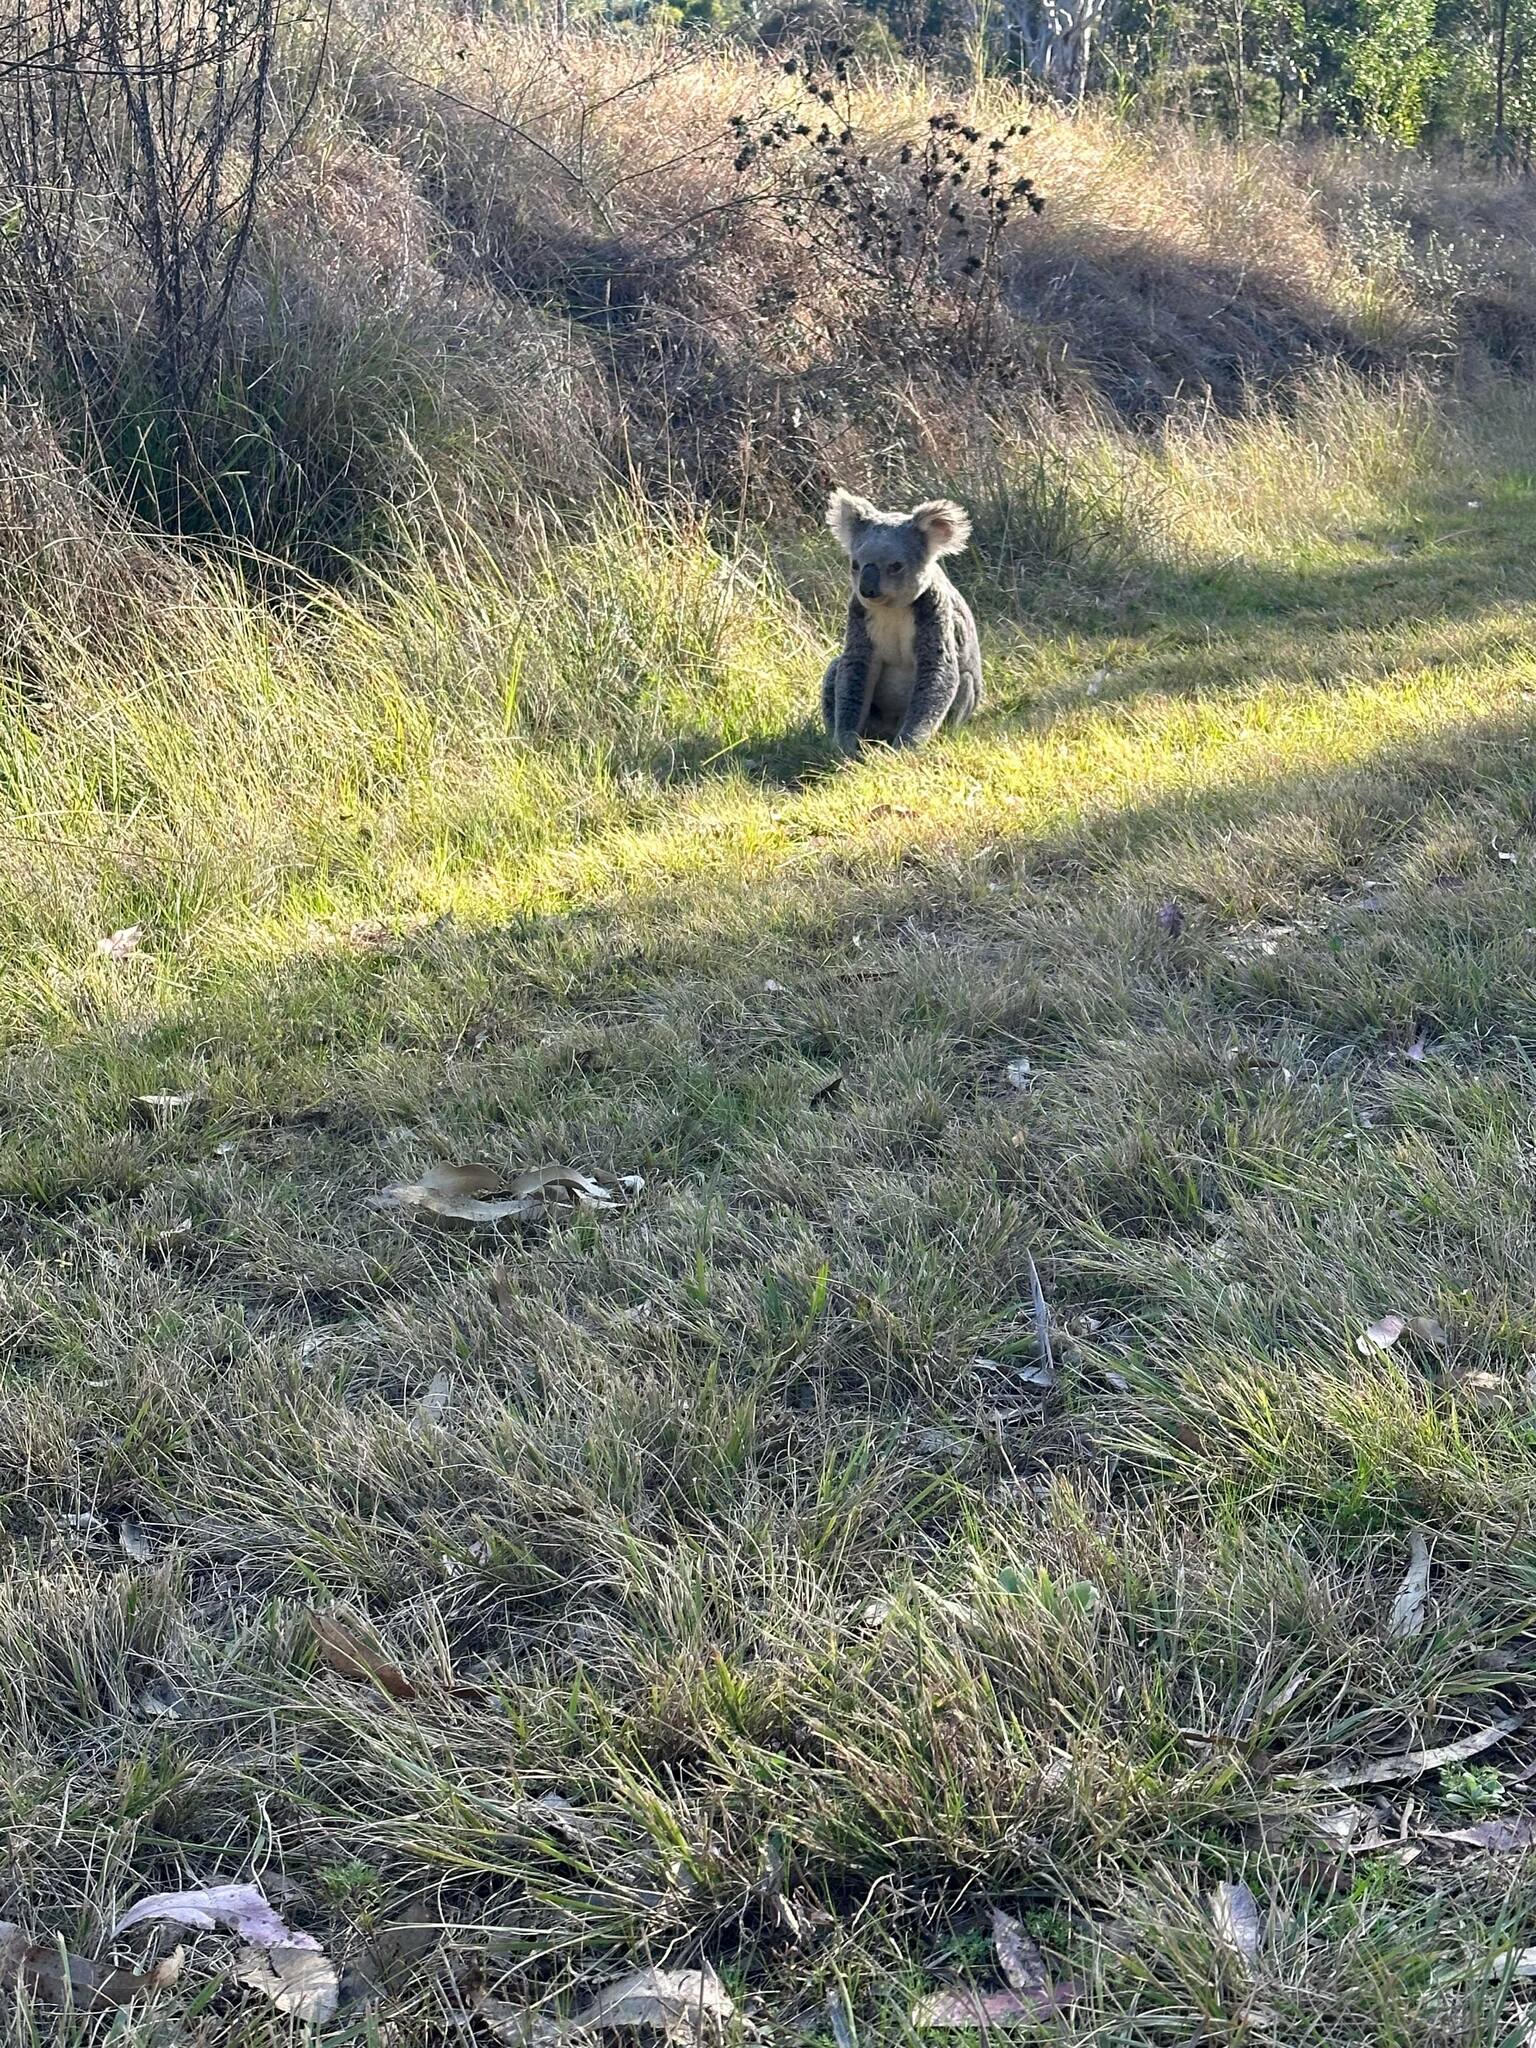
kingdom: Animalia
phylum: Chordata
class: Mammalia
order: Diprotodontia
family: Phascolarctidae
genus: Phascolarctos
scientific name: Phascolarctos cinereus
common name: Koala
